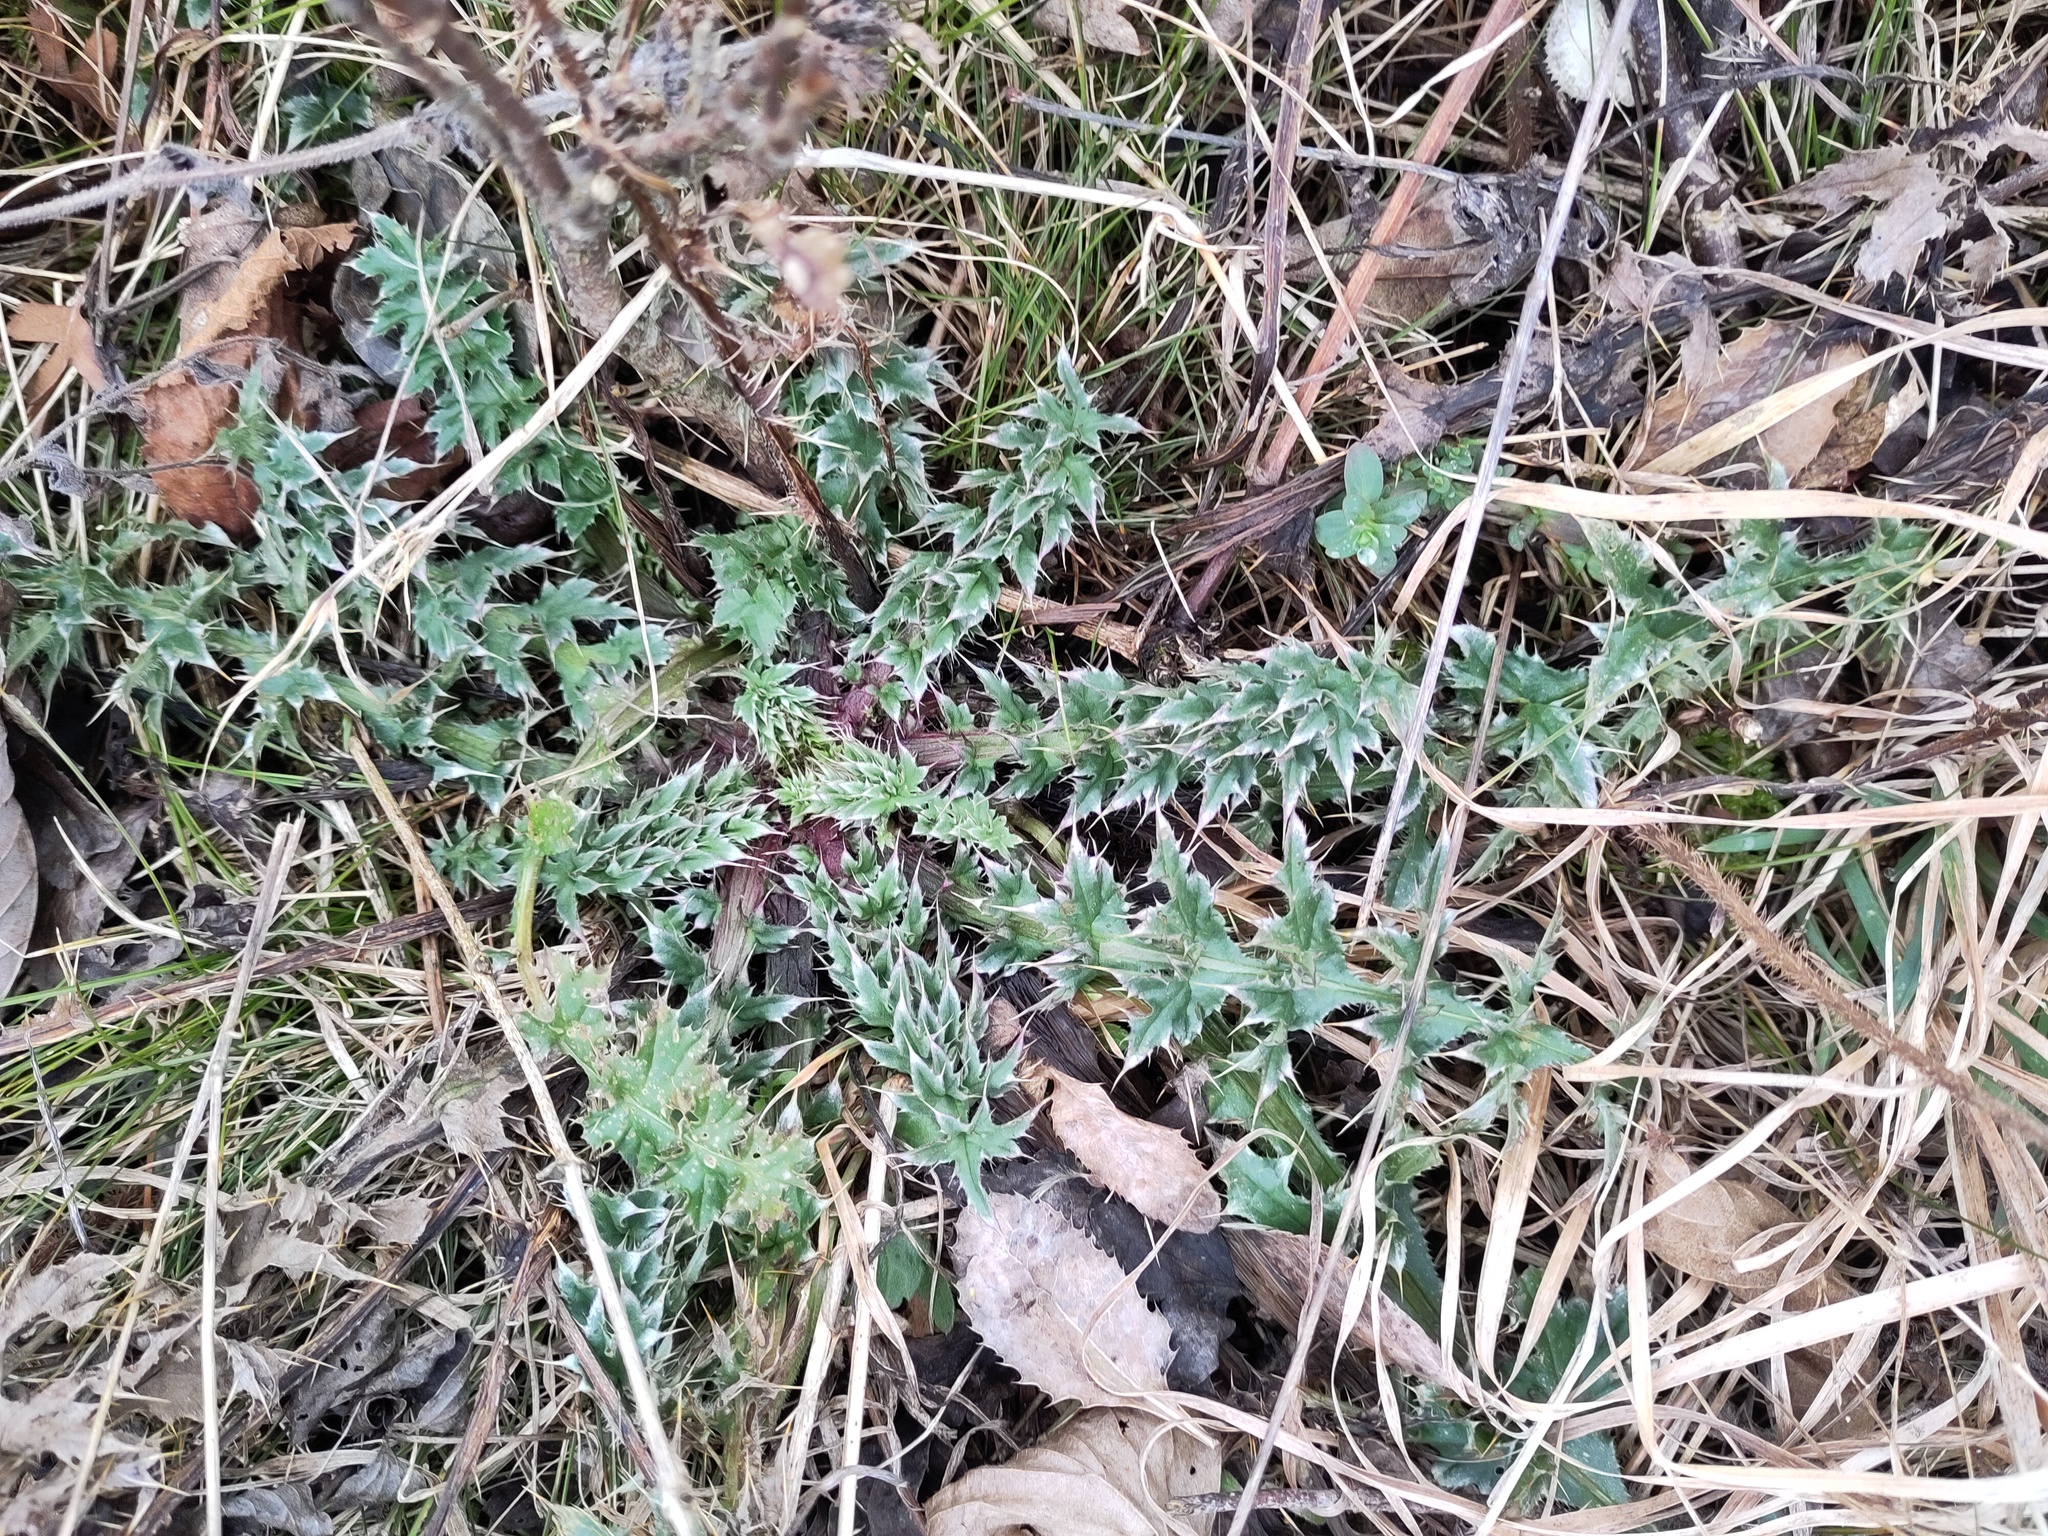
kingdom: Plantae
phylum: Tracheophyta
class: Magnoliopsida
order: Asterales
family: Asteraceae
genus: Carduus
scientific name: Carduus acanthoides
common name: Plumeless thistle
